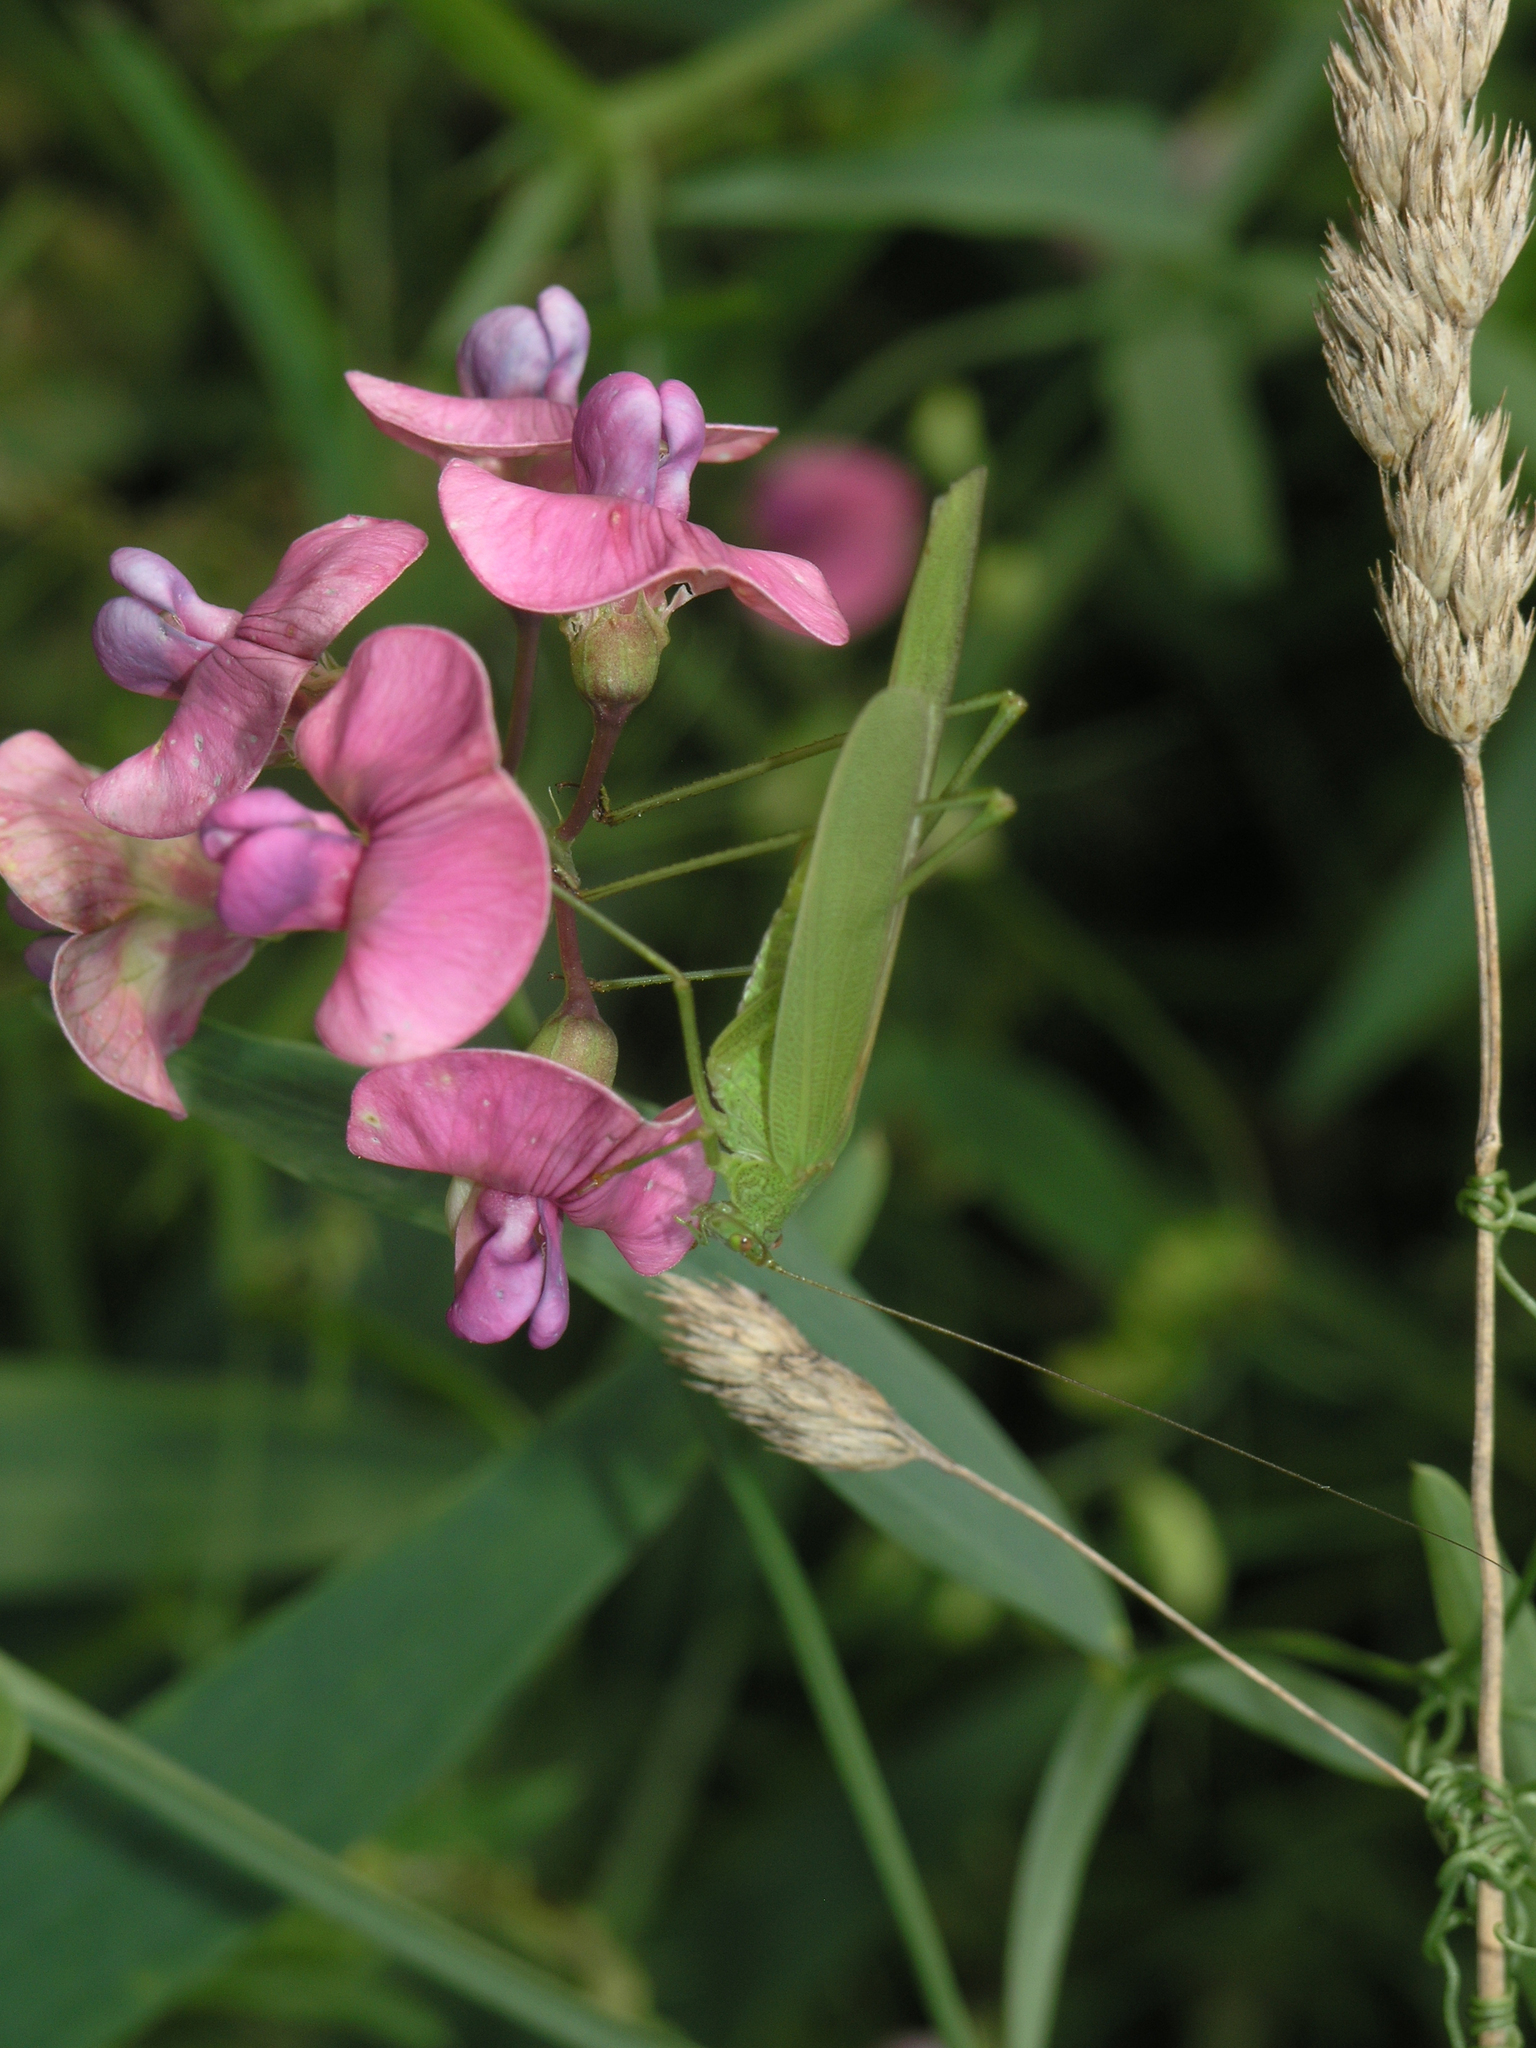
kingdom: Animalia
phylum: Arthropoda
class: Insecta
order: Orthoptera
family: Tettigoniidae
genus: Phaneroptera
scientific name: Phaneroptera falcata
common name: Sickle-bearing bush-cricket
